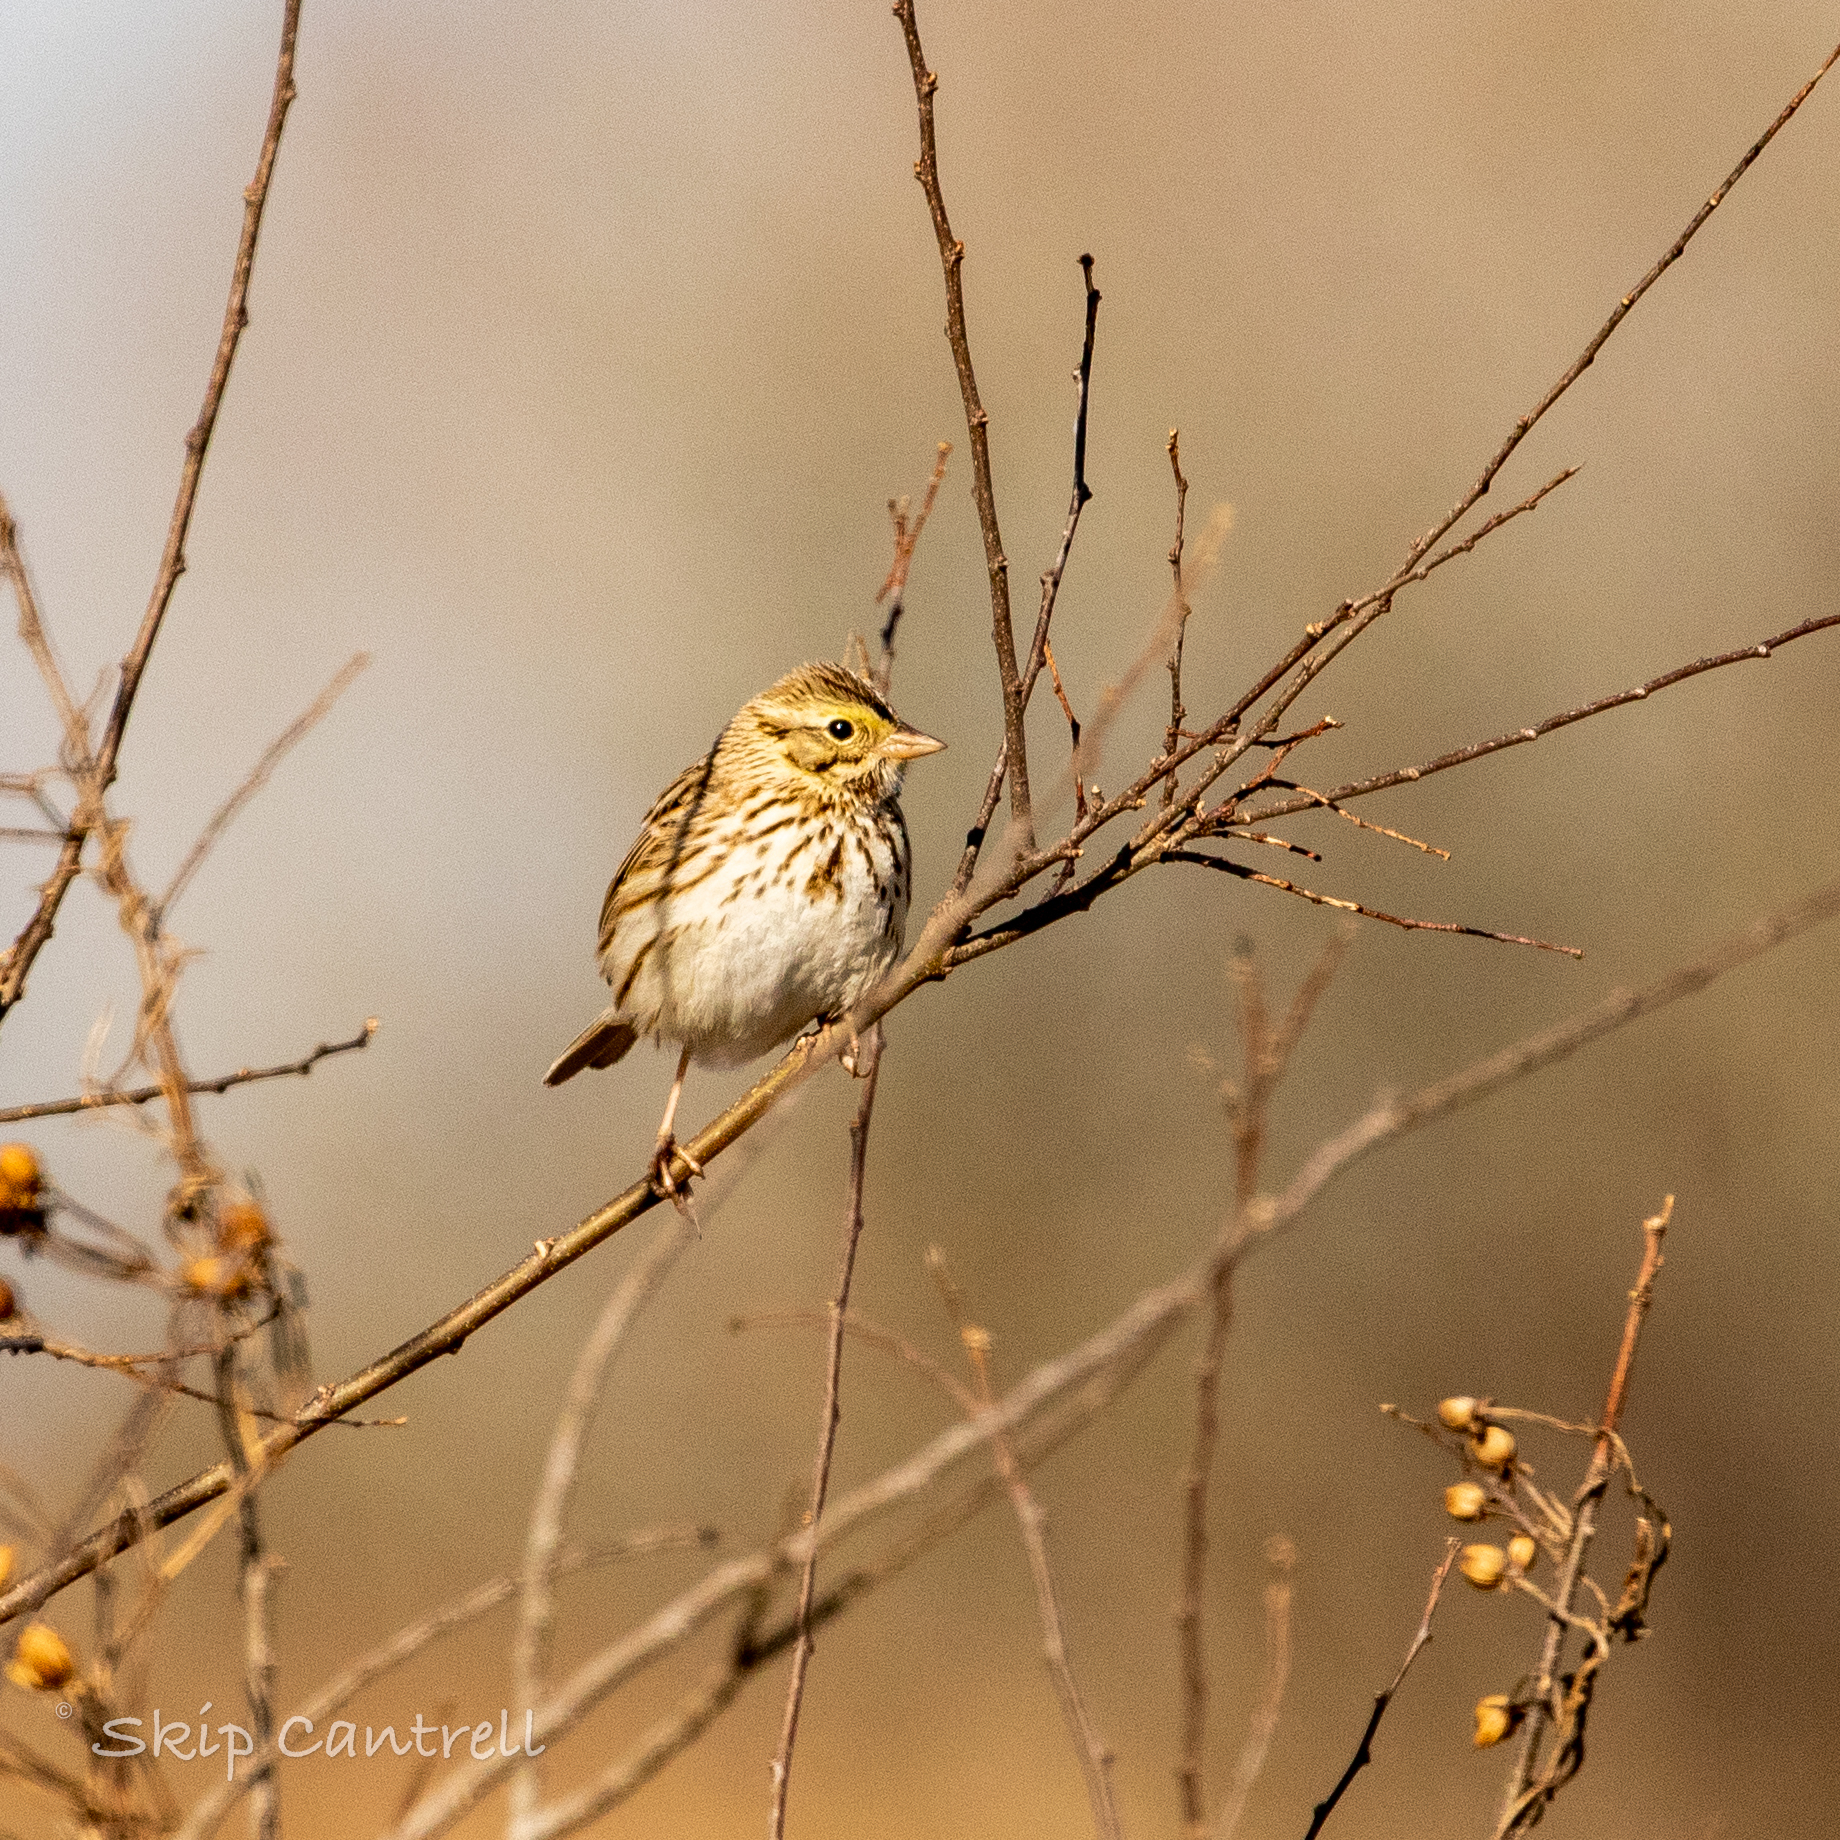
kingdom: Animalia
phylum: Chordata
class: Aves
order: Passeriformes
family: Passerellidae
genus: Passerculus
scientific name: Passerculus sandwichensis
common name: Savannah sparrow
